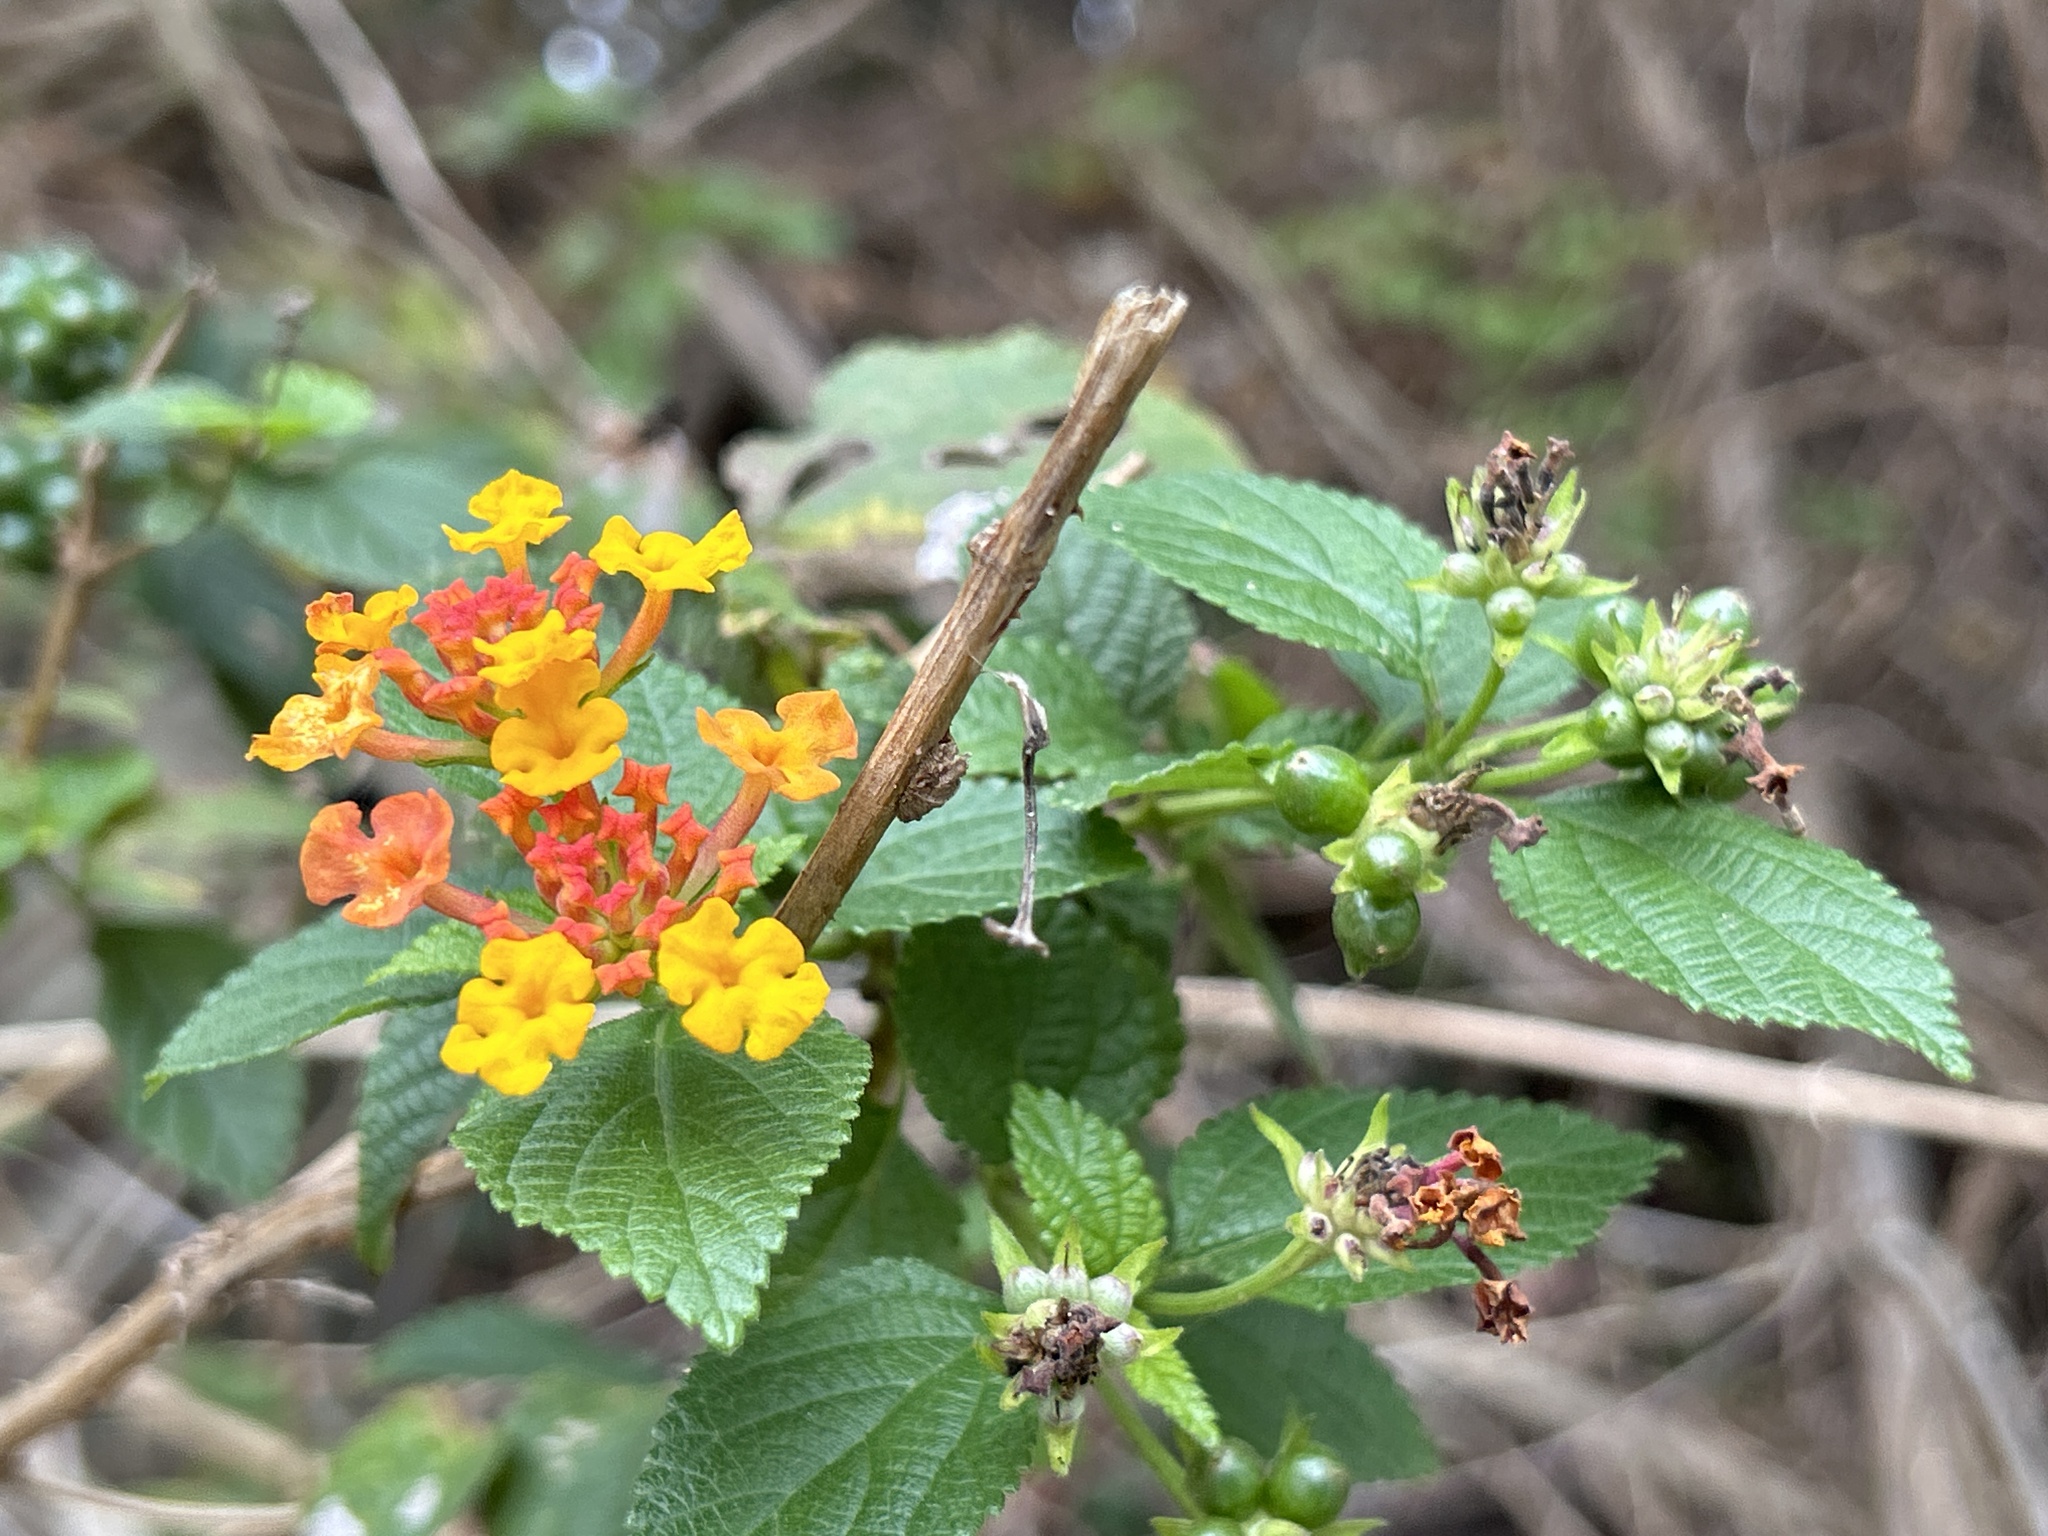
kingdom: Plantae
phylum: Tracheophyta
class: Magnoliopsida
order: Lamiales
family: Verbenaceae
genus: Lantana
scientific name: Lantana camara
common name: Lantana
